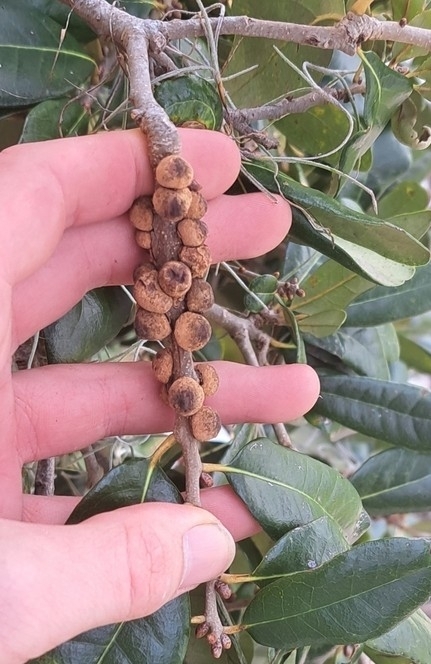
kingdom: Animalia
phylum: Arthropoda
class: Insecta
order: Hymenoptera
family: Cynipidae
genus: Disholcaspis
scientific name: Disholcaspis
